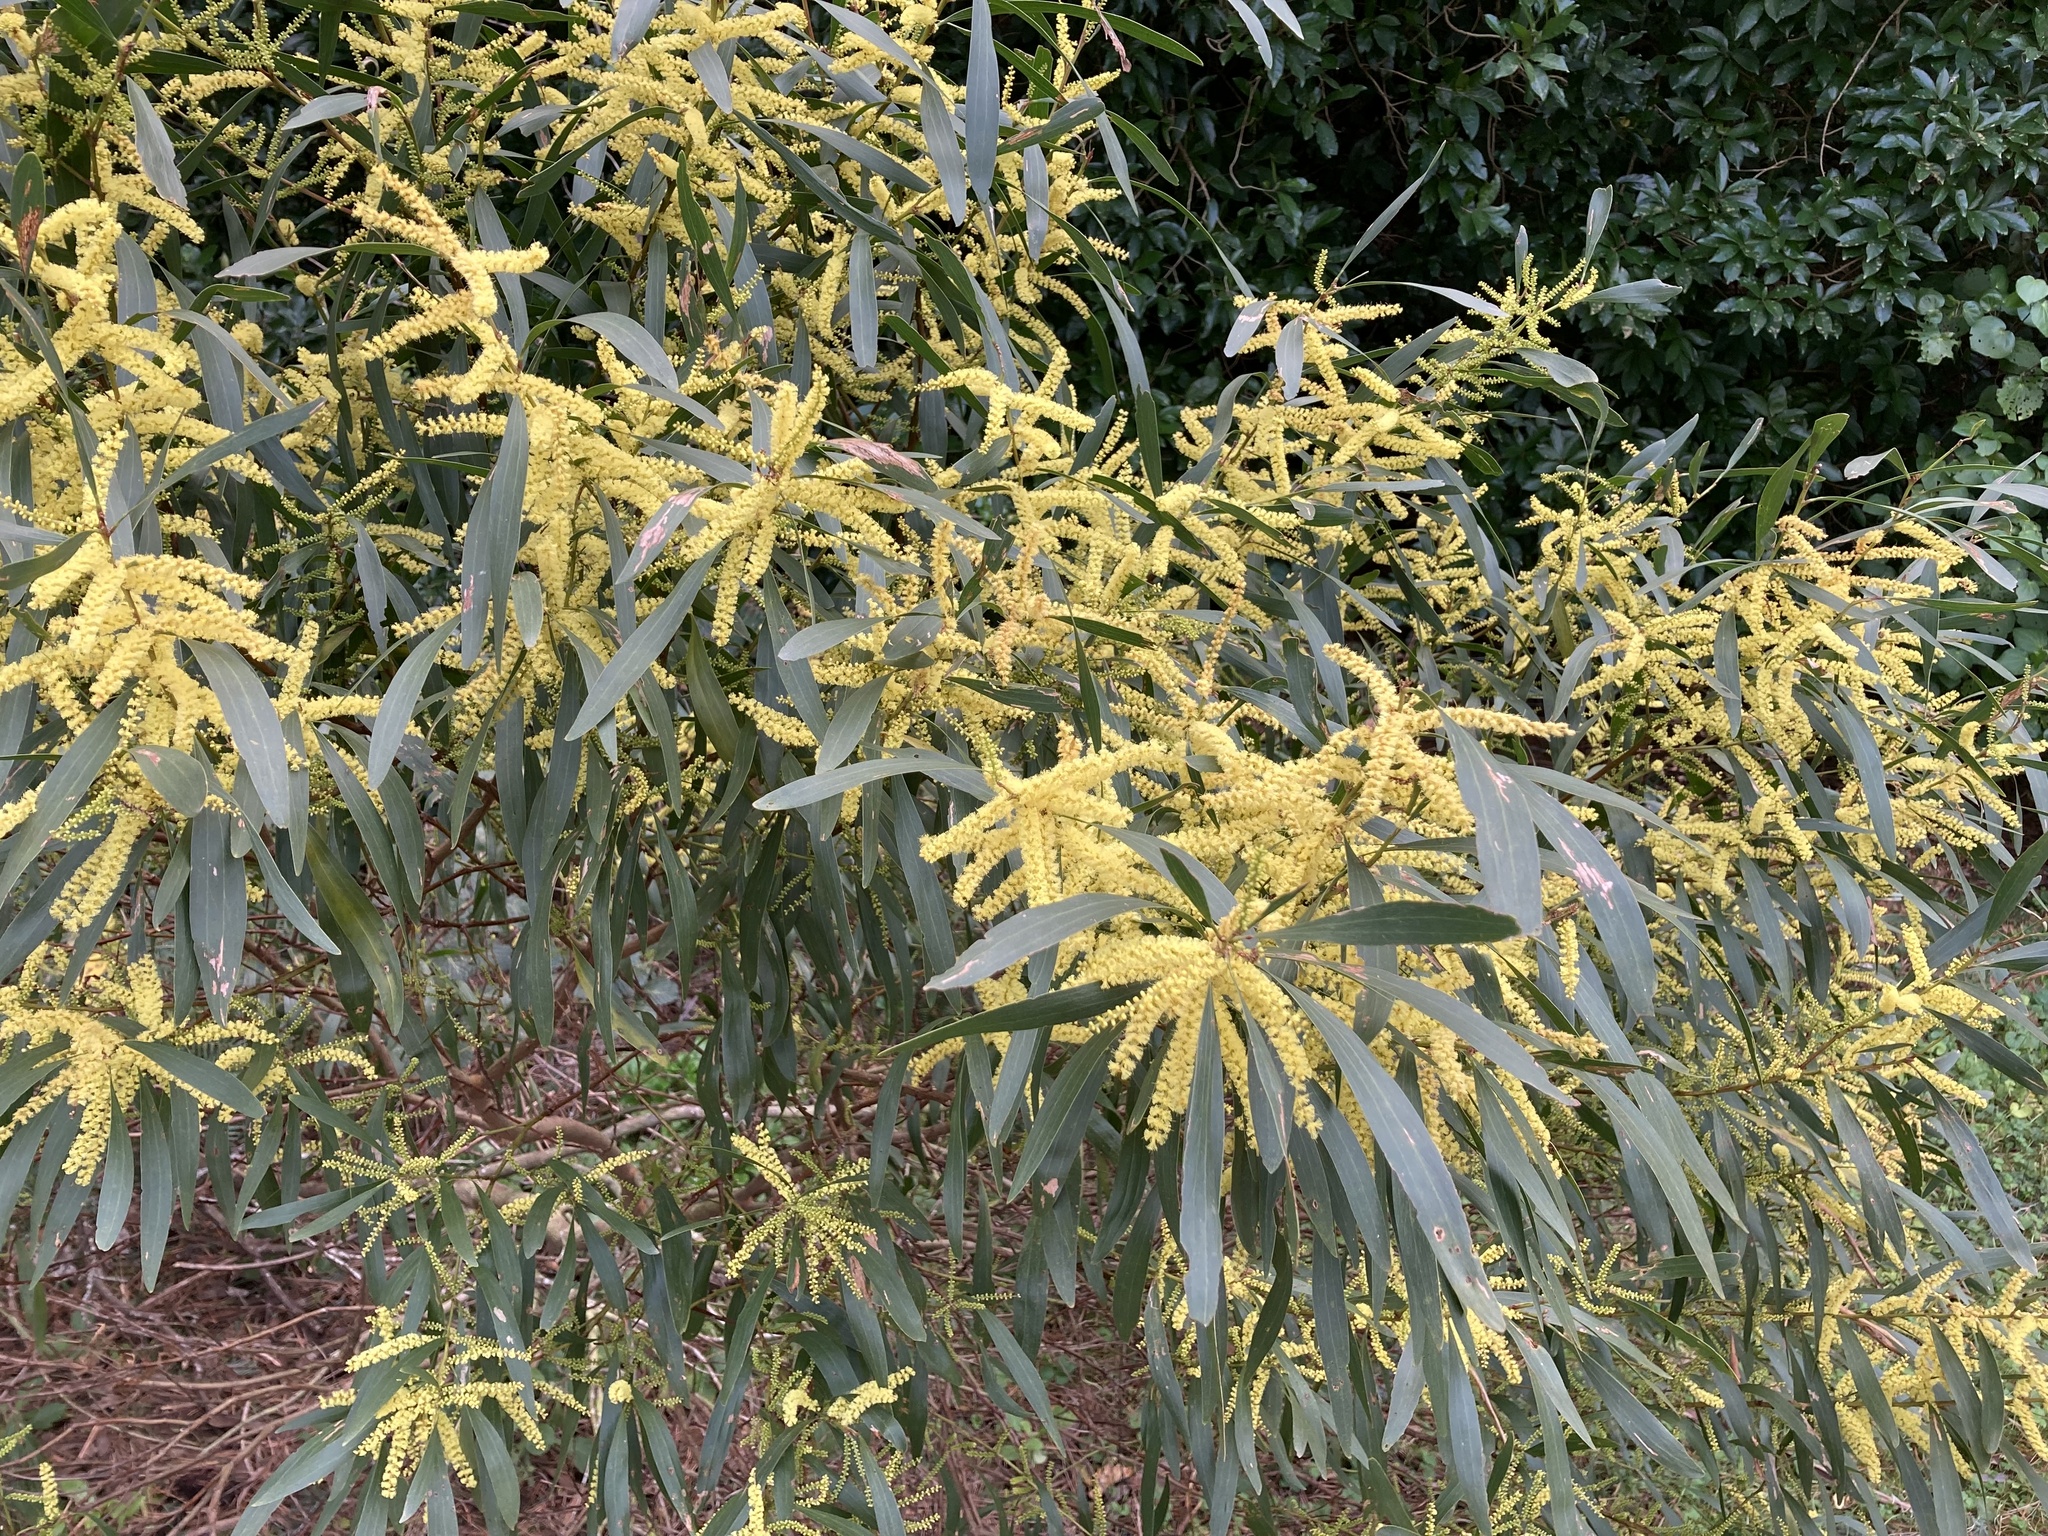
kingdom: Plantae
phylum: Tracheophyta
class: Magnoliopsida
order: Fabales
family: Fabaceae
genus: Acacia
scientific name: Acacia longifolia
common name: Sydney golden wattle
